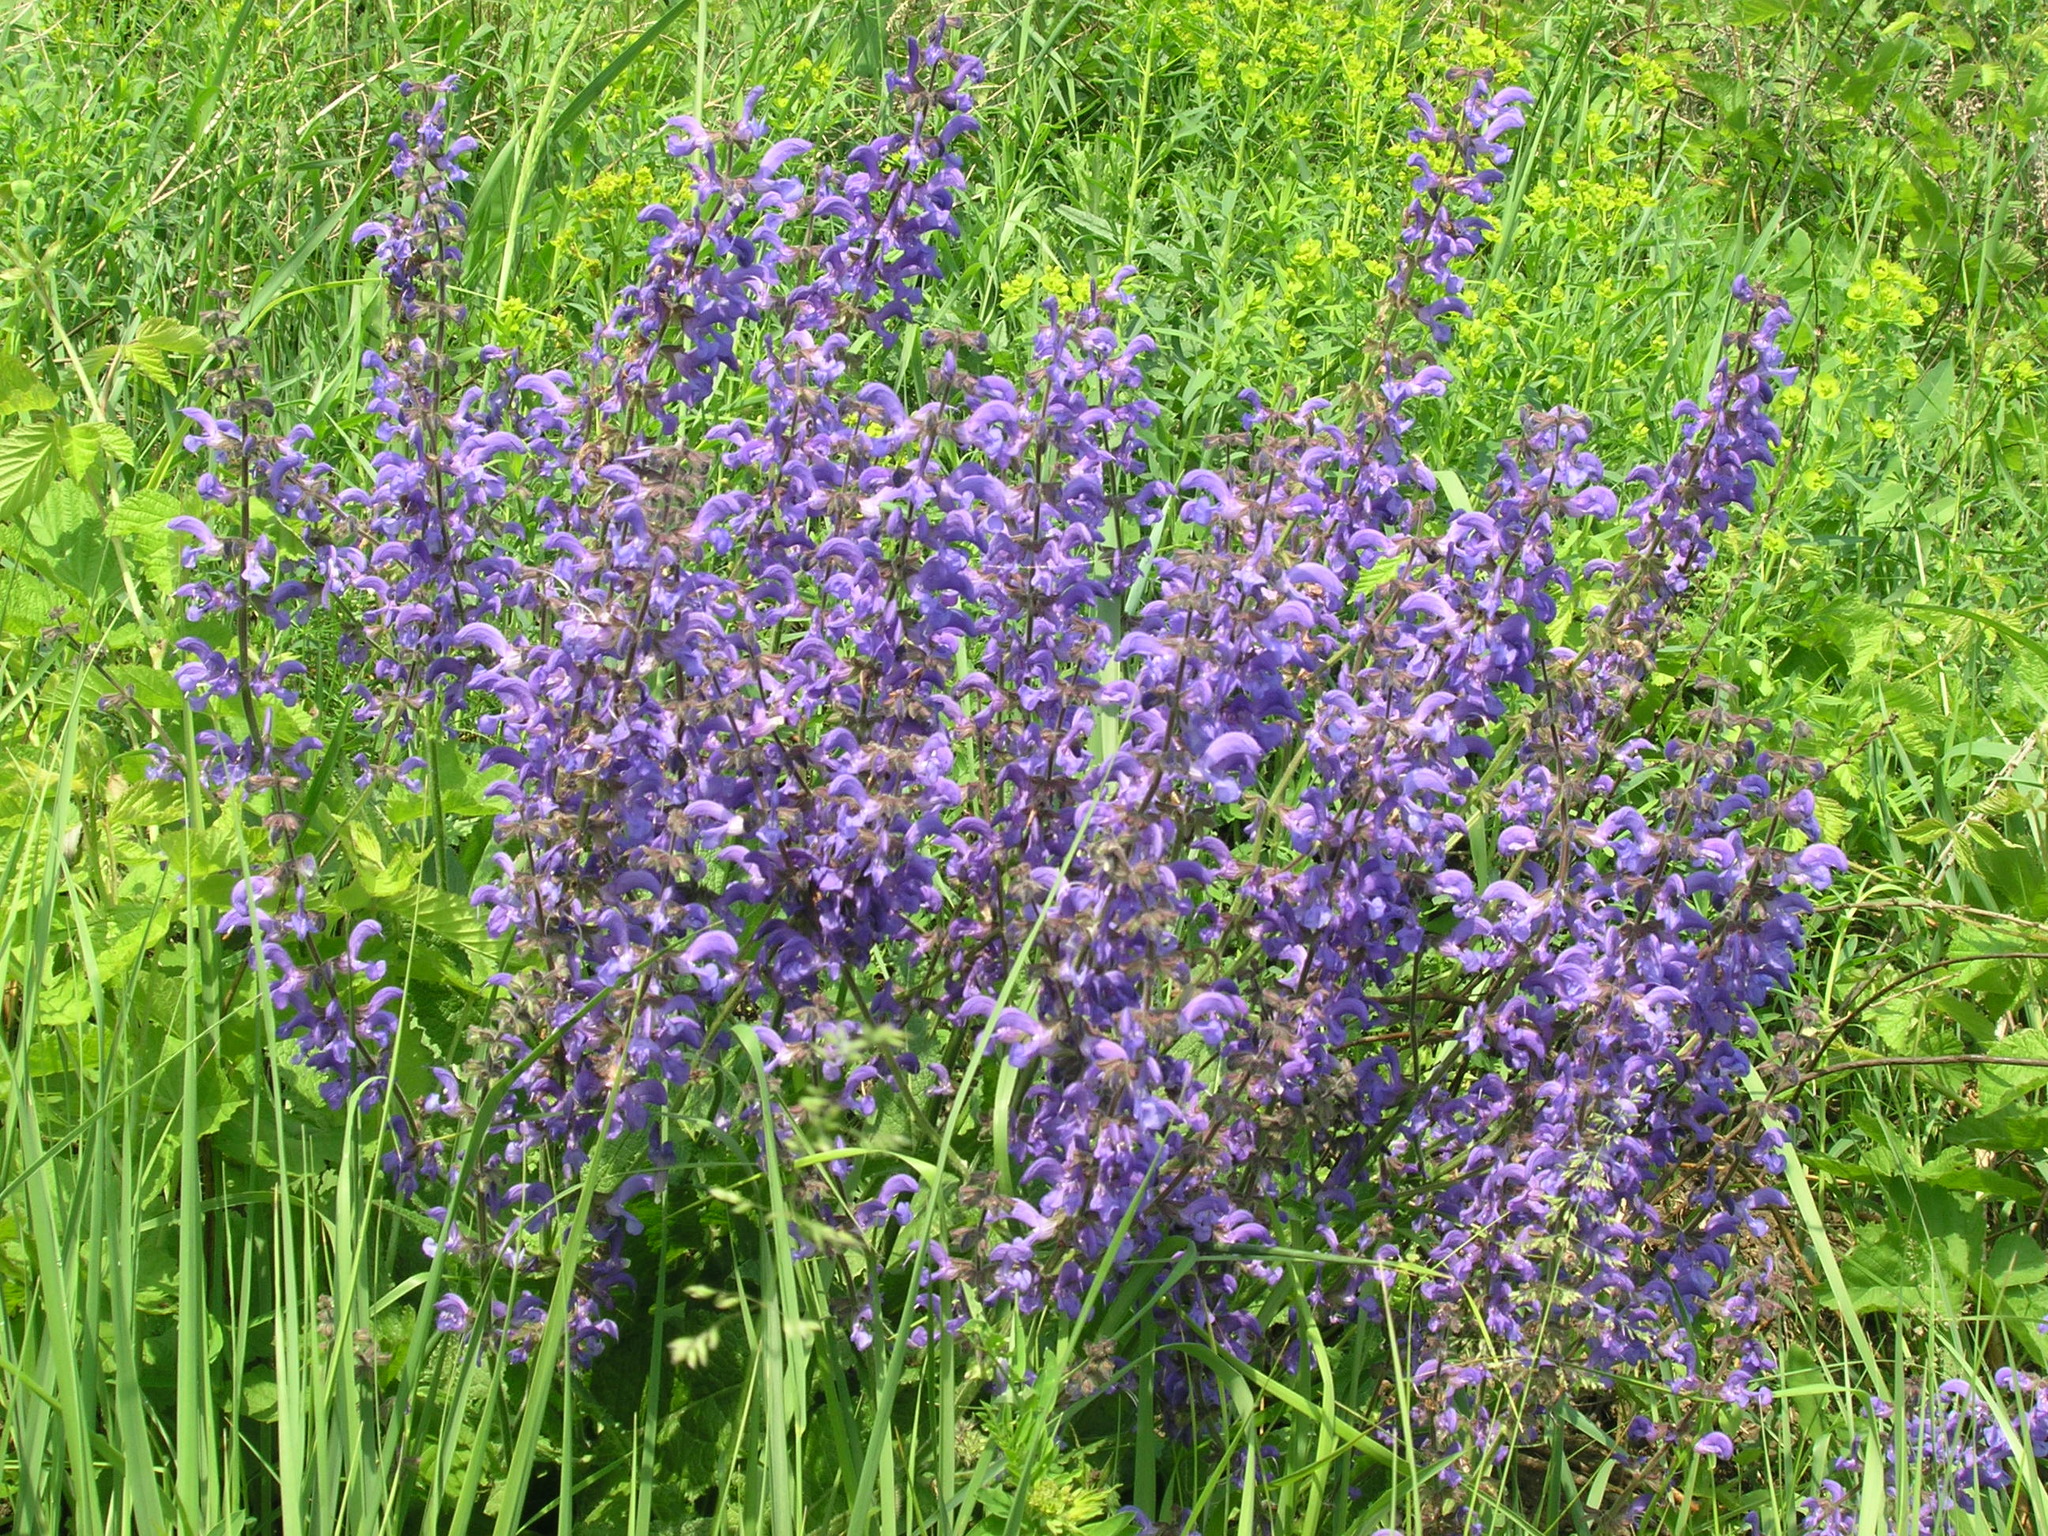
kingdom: Plantae
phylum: Tracheophyta
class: Magnoliopsida
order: Lamiales
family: Lamiaceae
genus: Salvia
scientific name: Salvia pratensis
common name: Meadow sage
